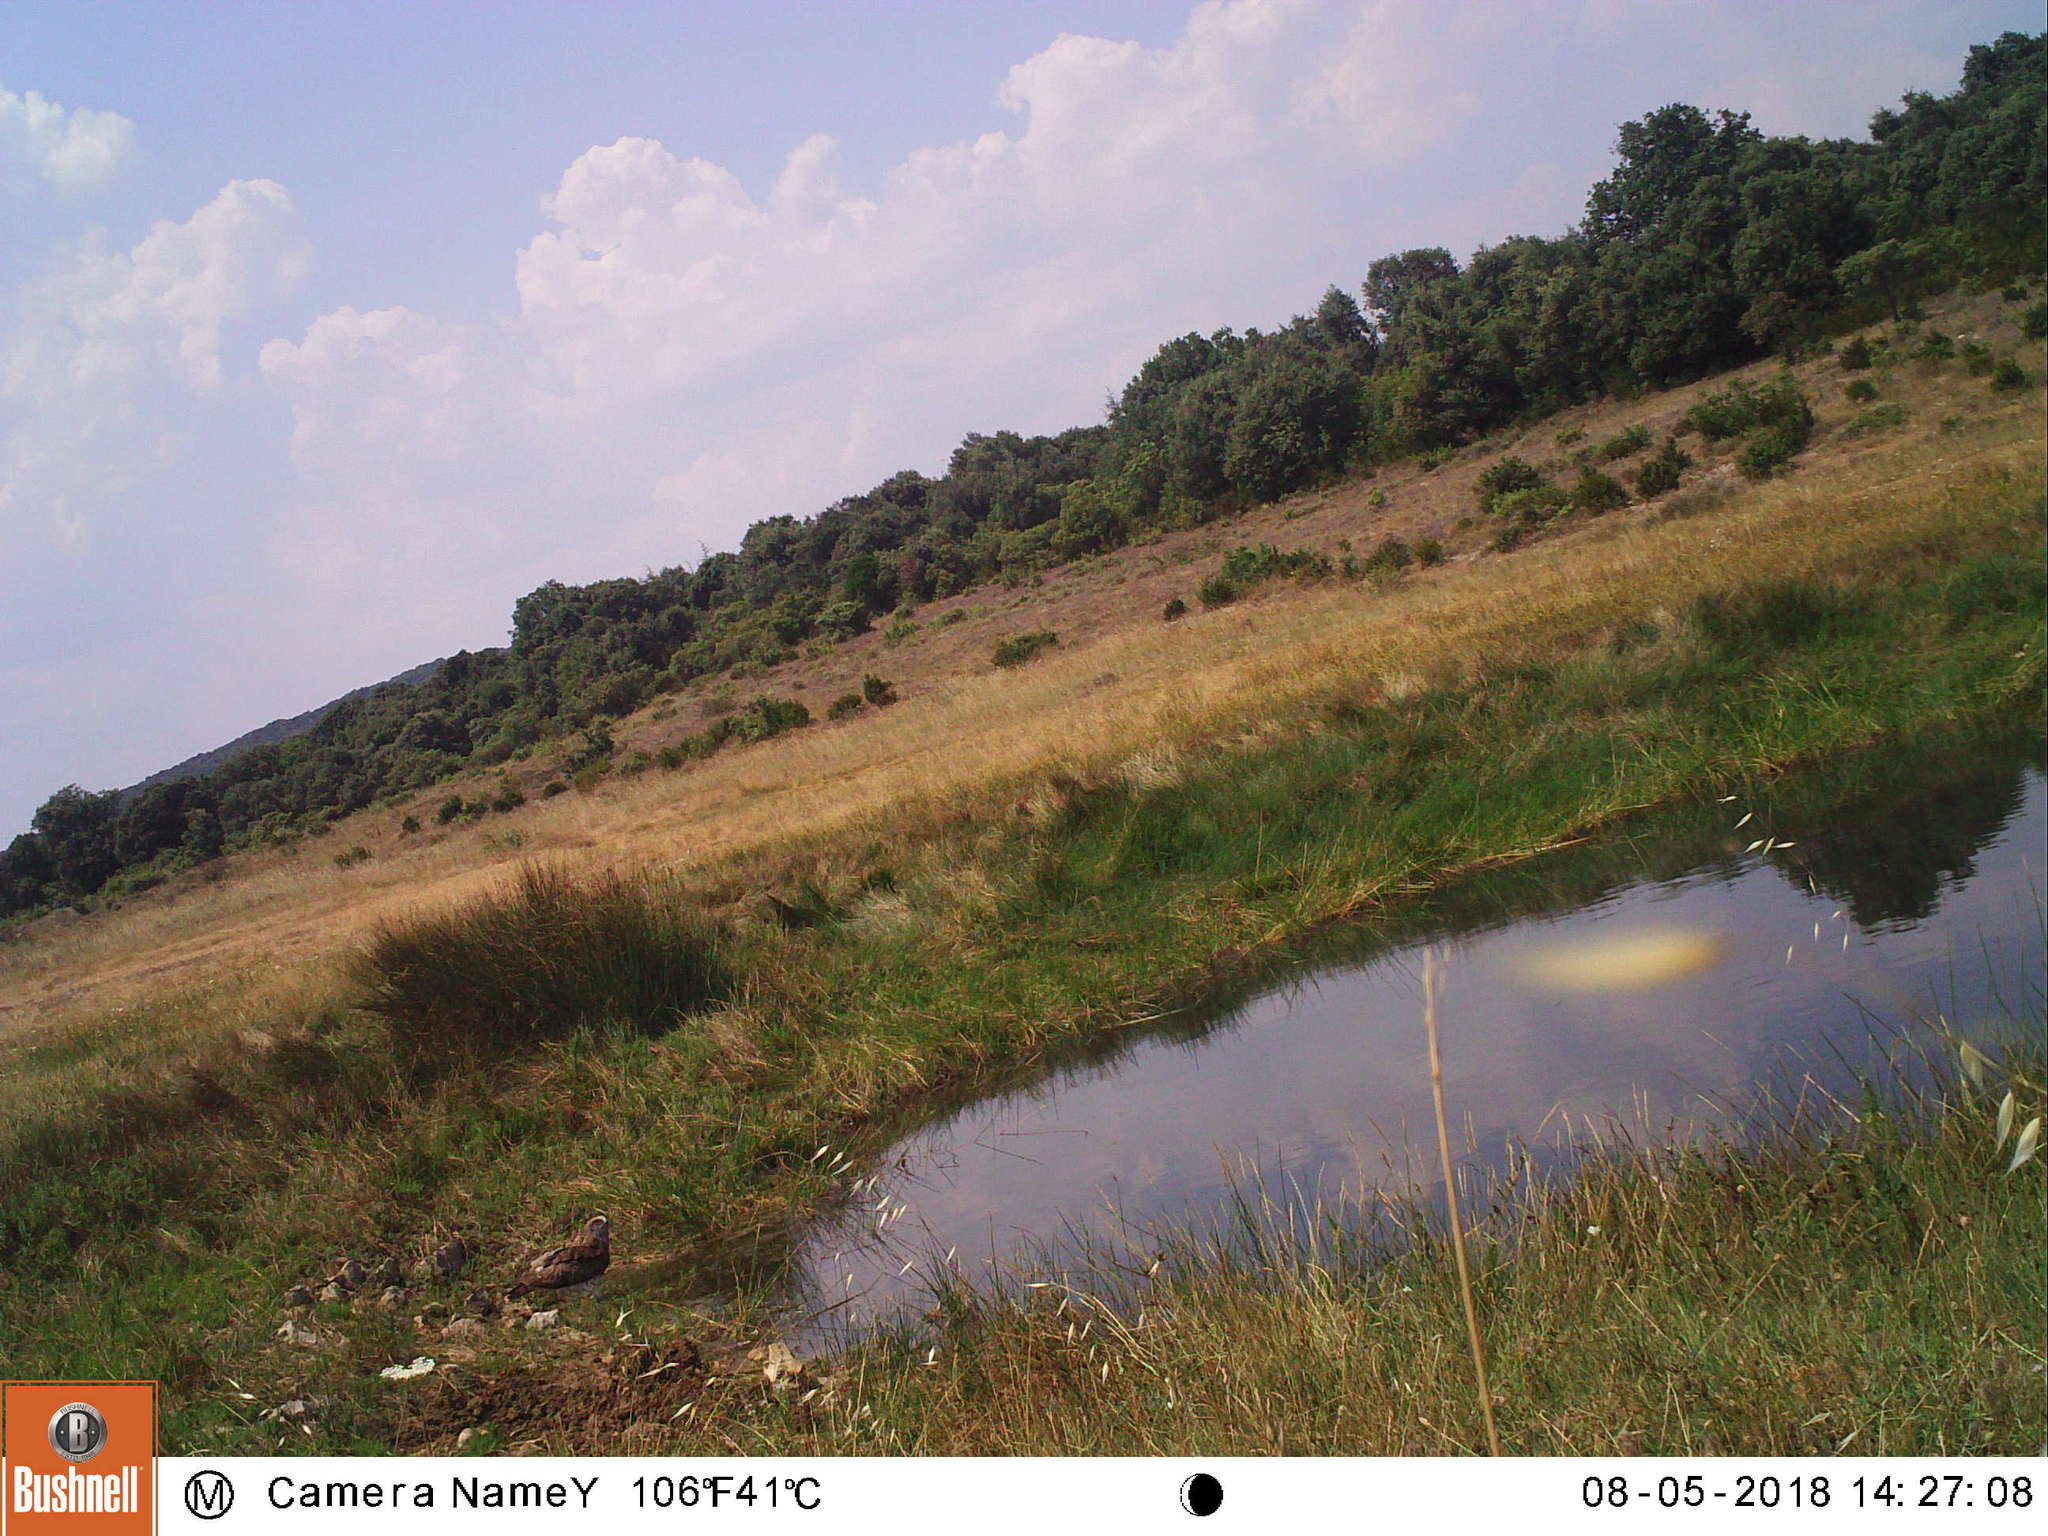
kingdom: Animalia
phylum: Chordata
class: Aves
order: Accipitriformes
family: Accipitridae
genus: Circaetus
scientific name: Circaetus gallicus
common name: Short-toed snake eagle
